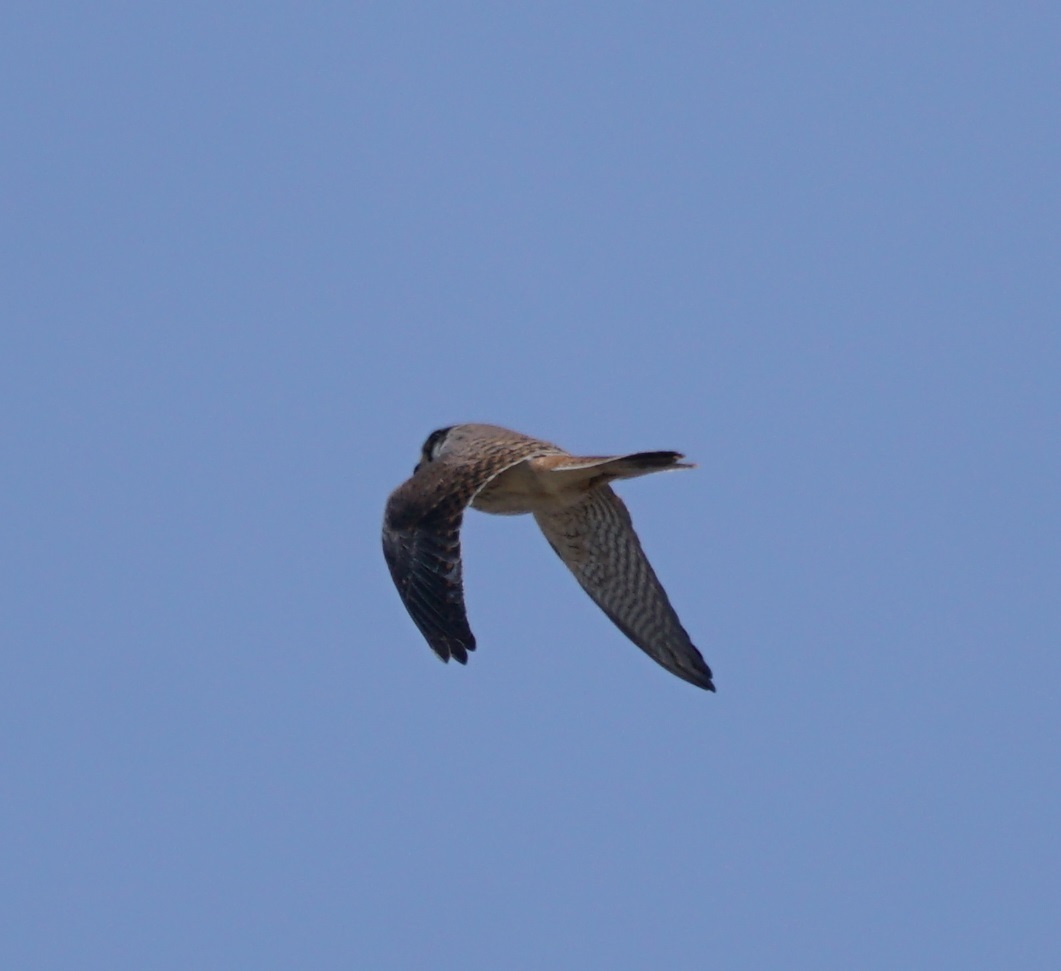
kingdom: Animalia
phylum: Chordata
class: Aves
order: Falconiformes
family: Falconidae
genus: Falco
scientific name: Falco sparverius
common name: American kestrel
